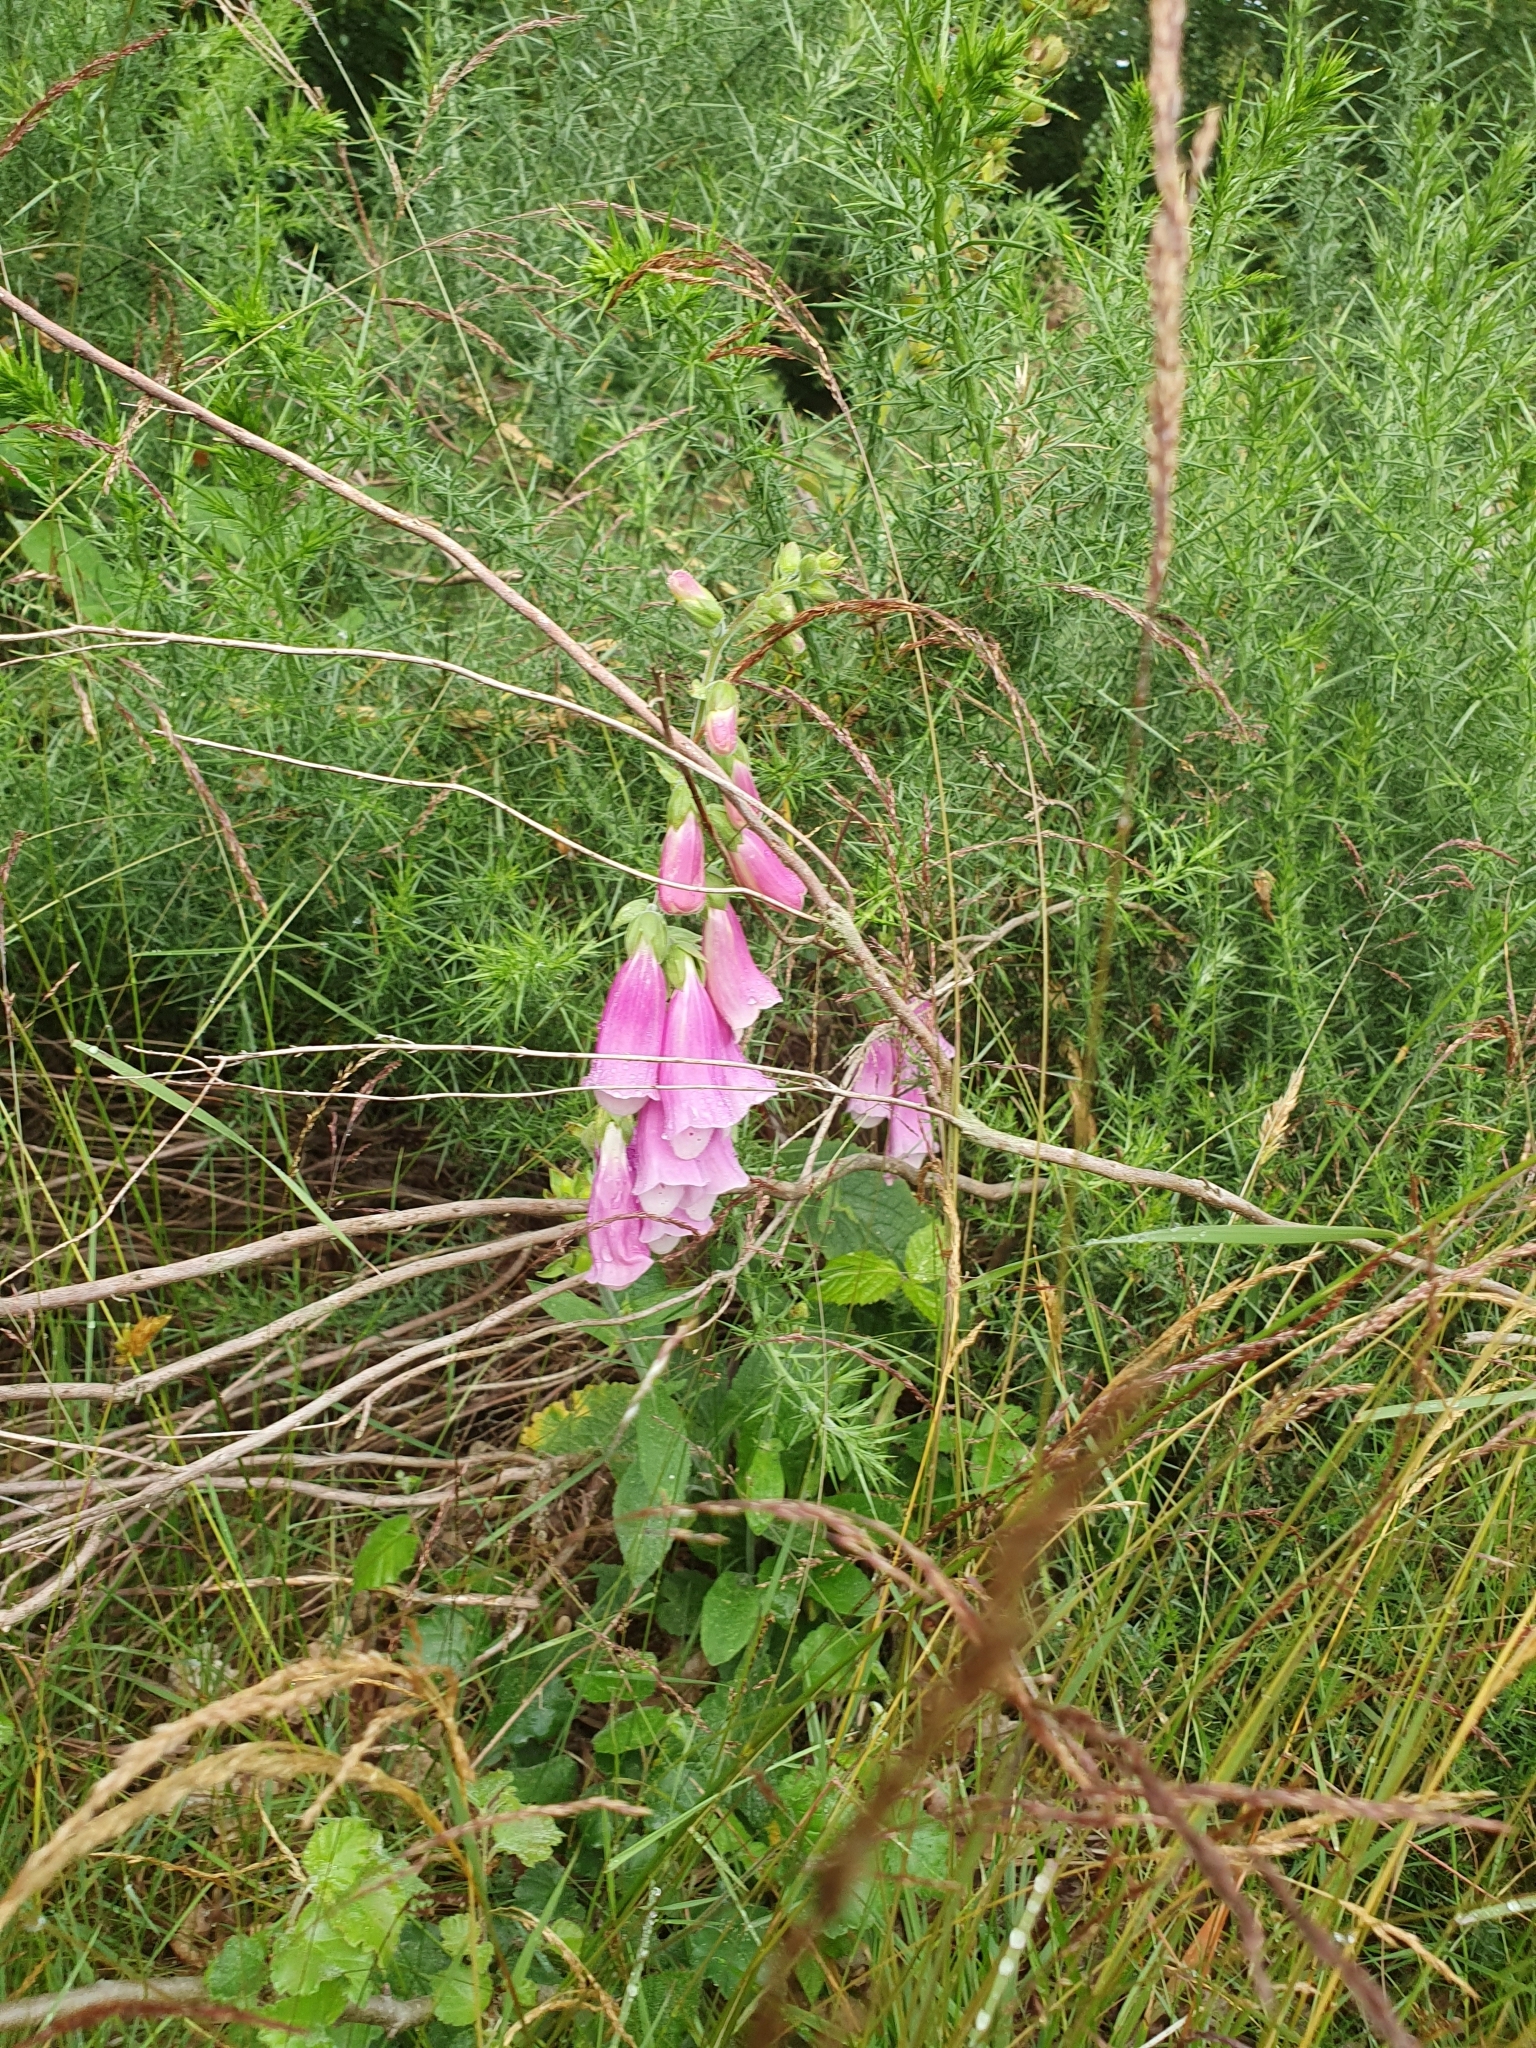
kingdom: Plantae
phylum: Tracheophyta
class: Magnoliopsida
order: Lamiales
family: Plantaginaceae
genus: Digitalis
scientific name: Digitalis purpurea
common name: Foxglove
